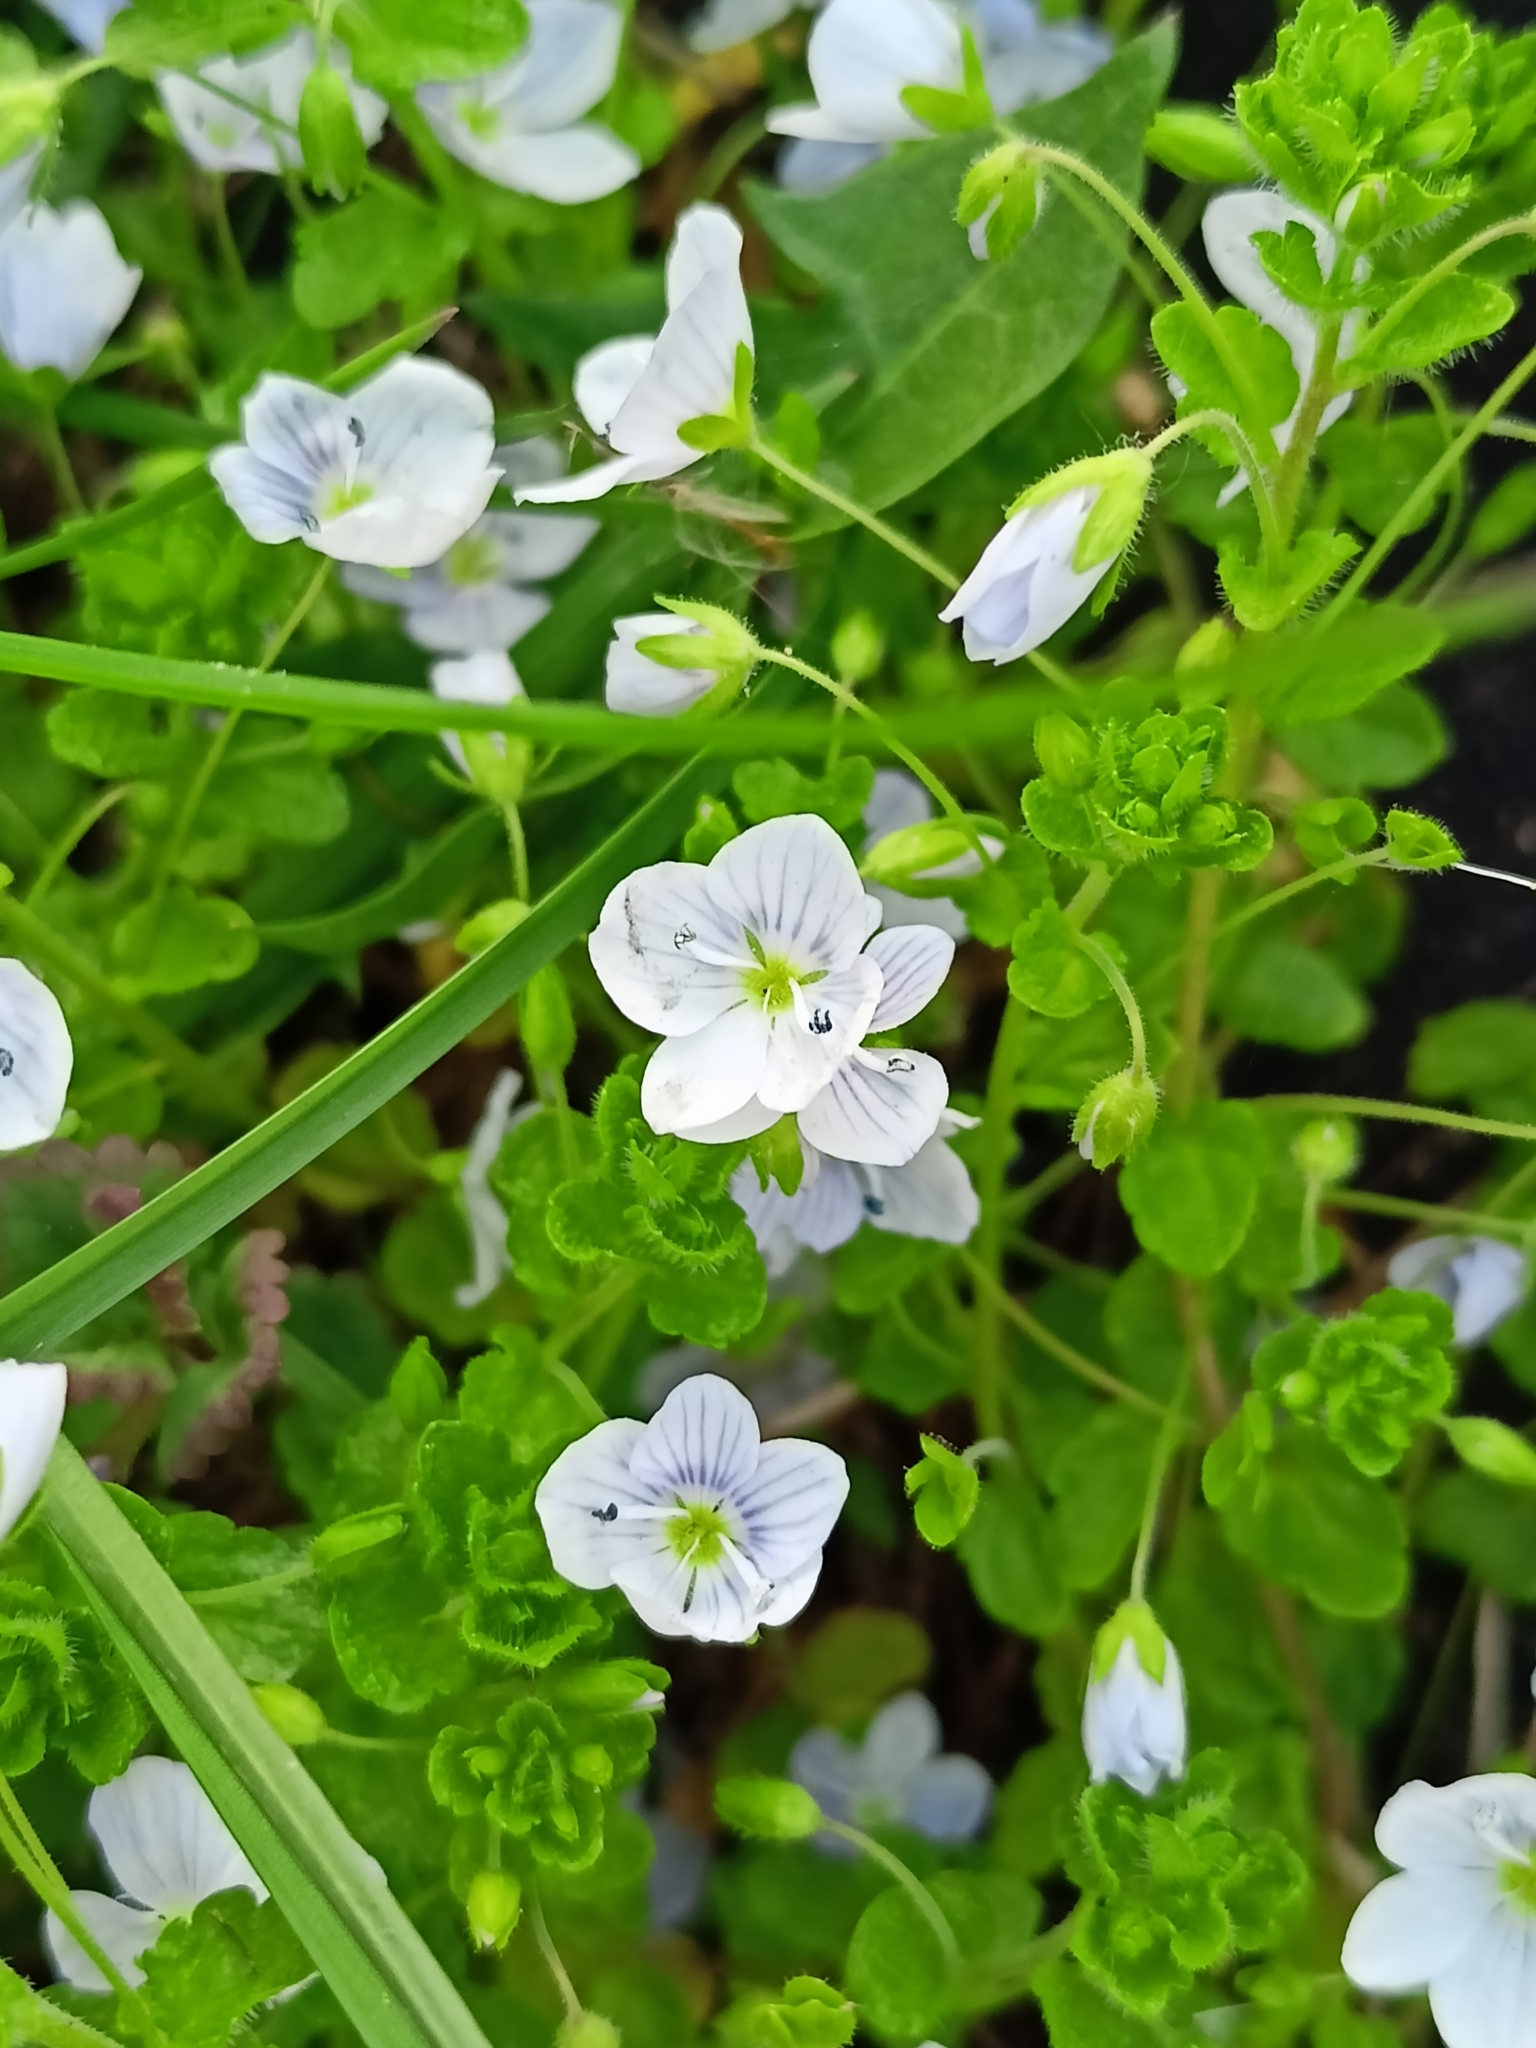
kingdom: Plantae
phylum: Tracheophyta
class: Magnoliopsida
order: Lamiales
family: Plantaginaceae
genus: Veronica
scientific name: Veronica filiformis
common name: Slender speedwell
